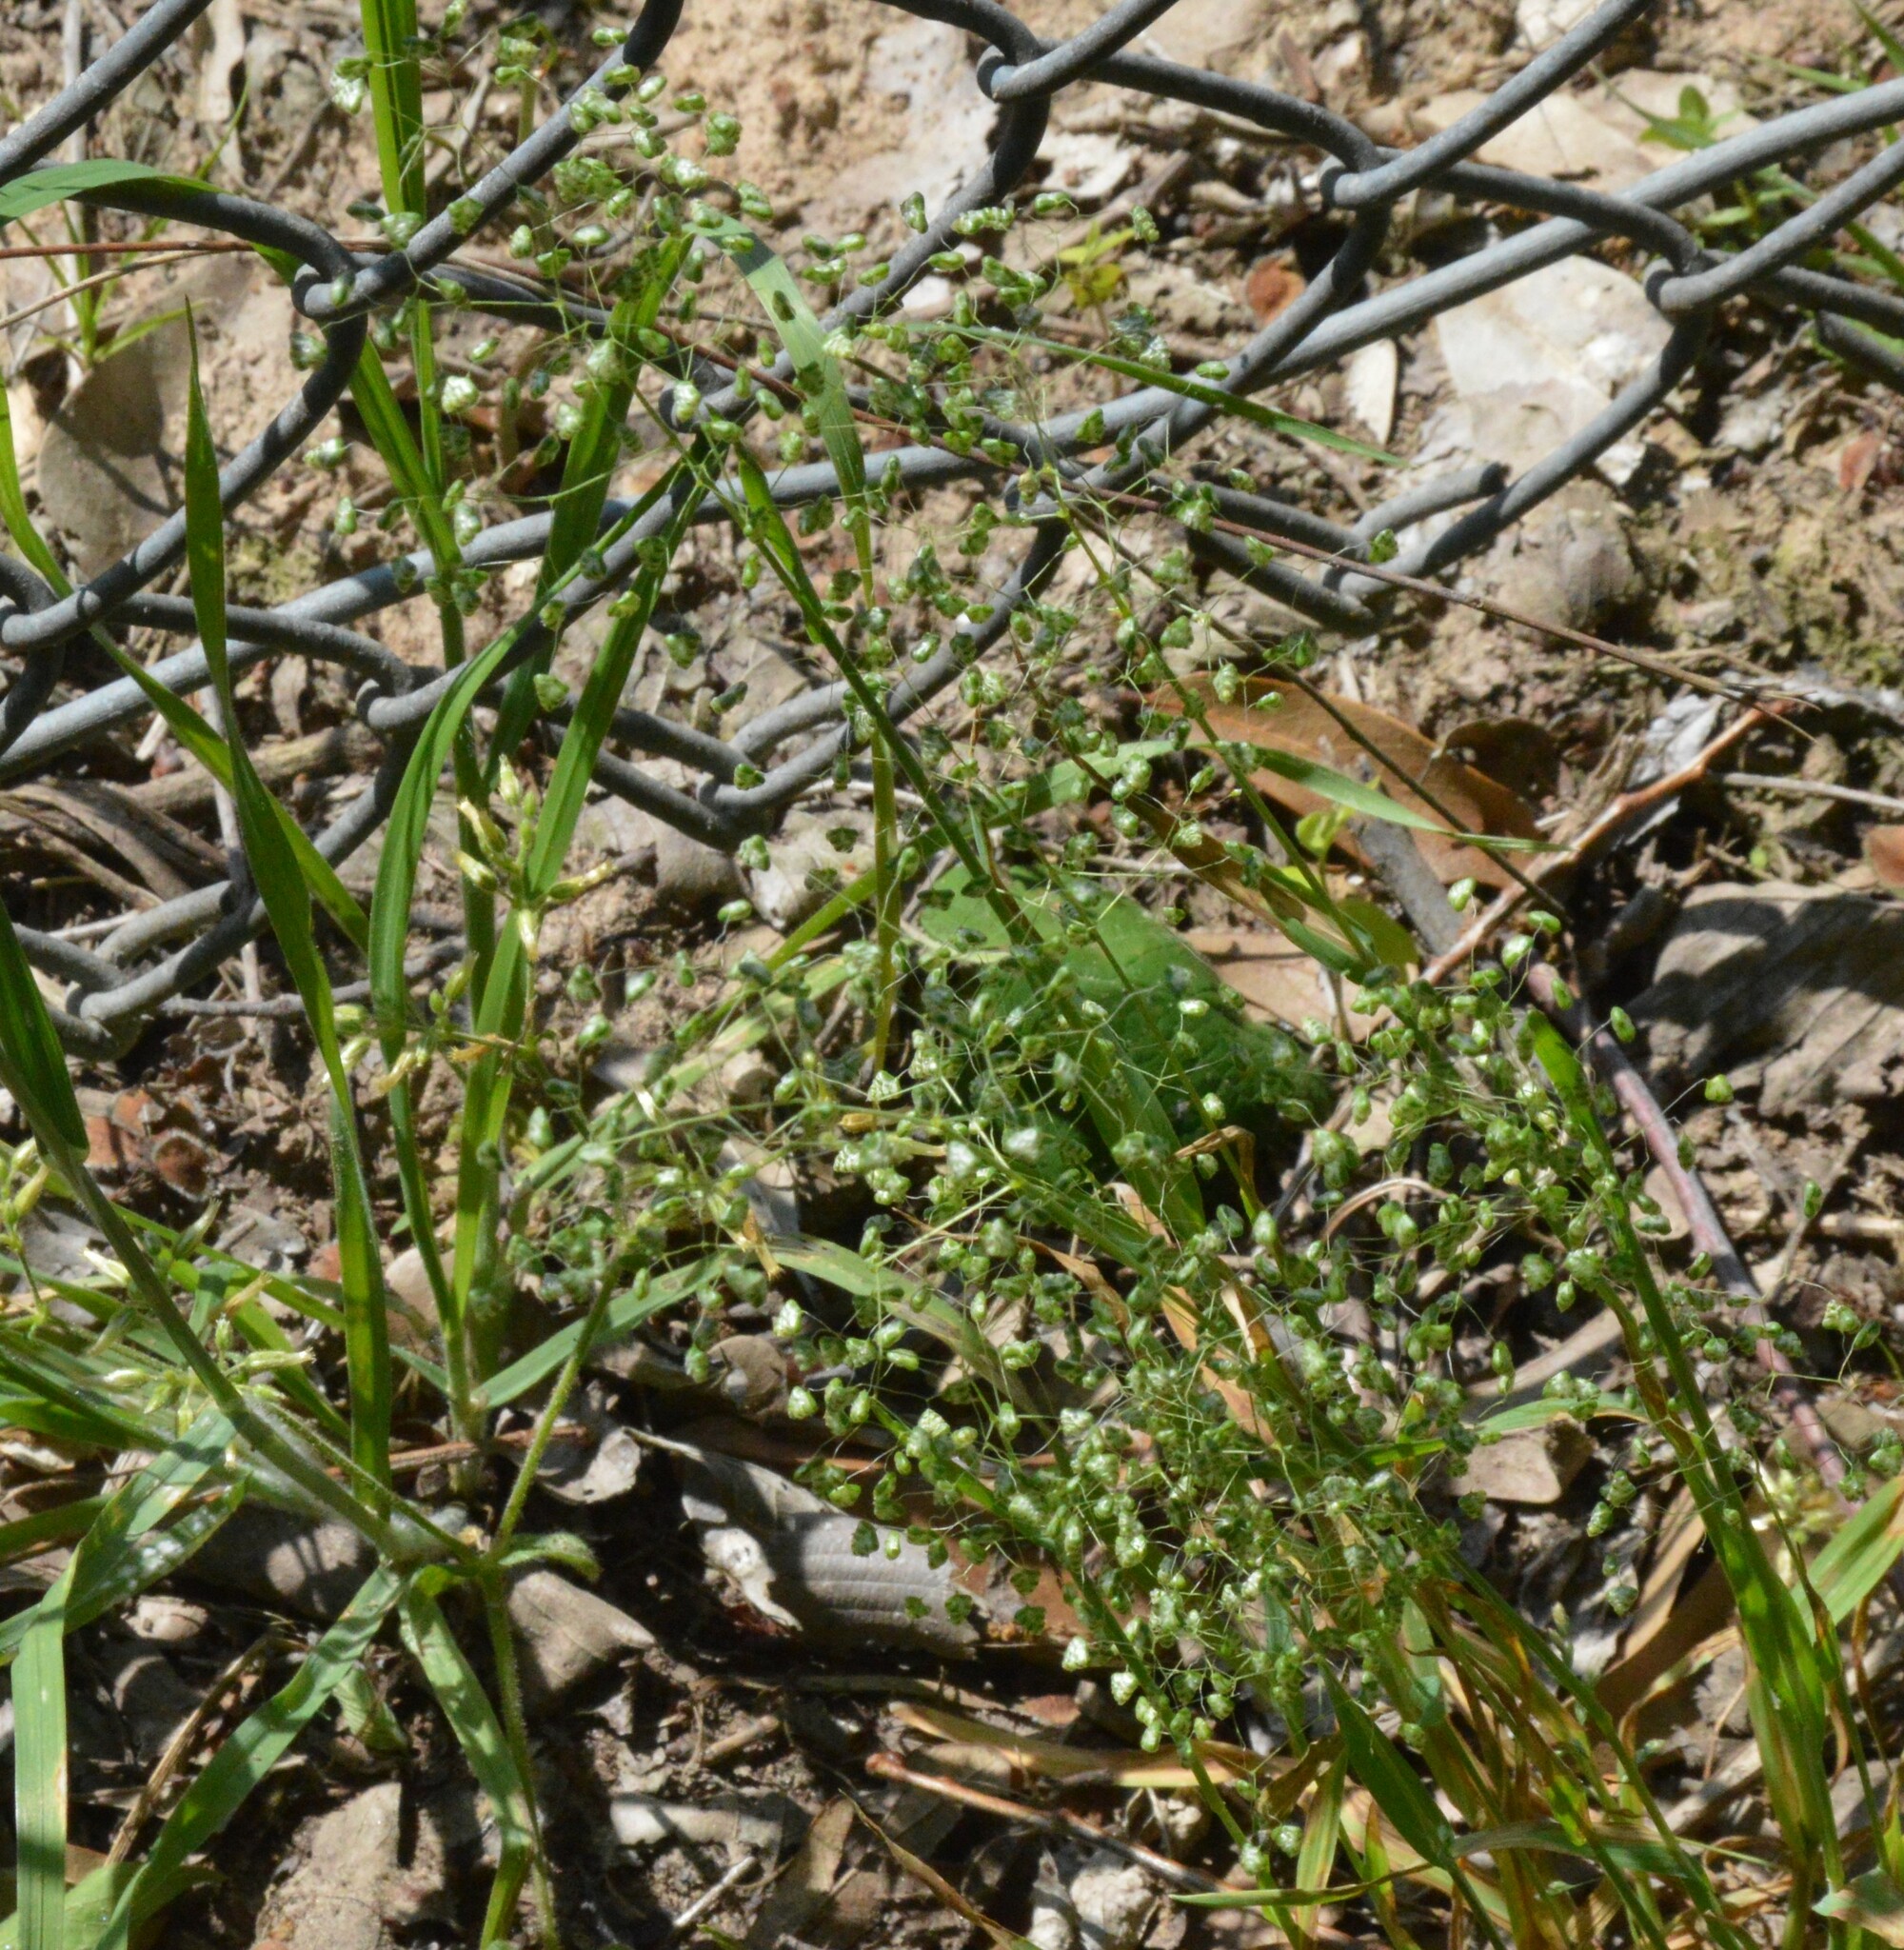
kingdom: Plantae
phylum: Tracheophyta
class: Liliopsida
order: Poales
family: Poaceae
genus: Briza
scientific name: Briza minor
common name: Lesser quaking-grass
